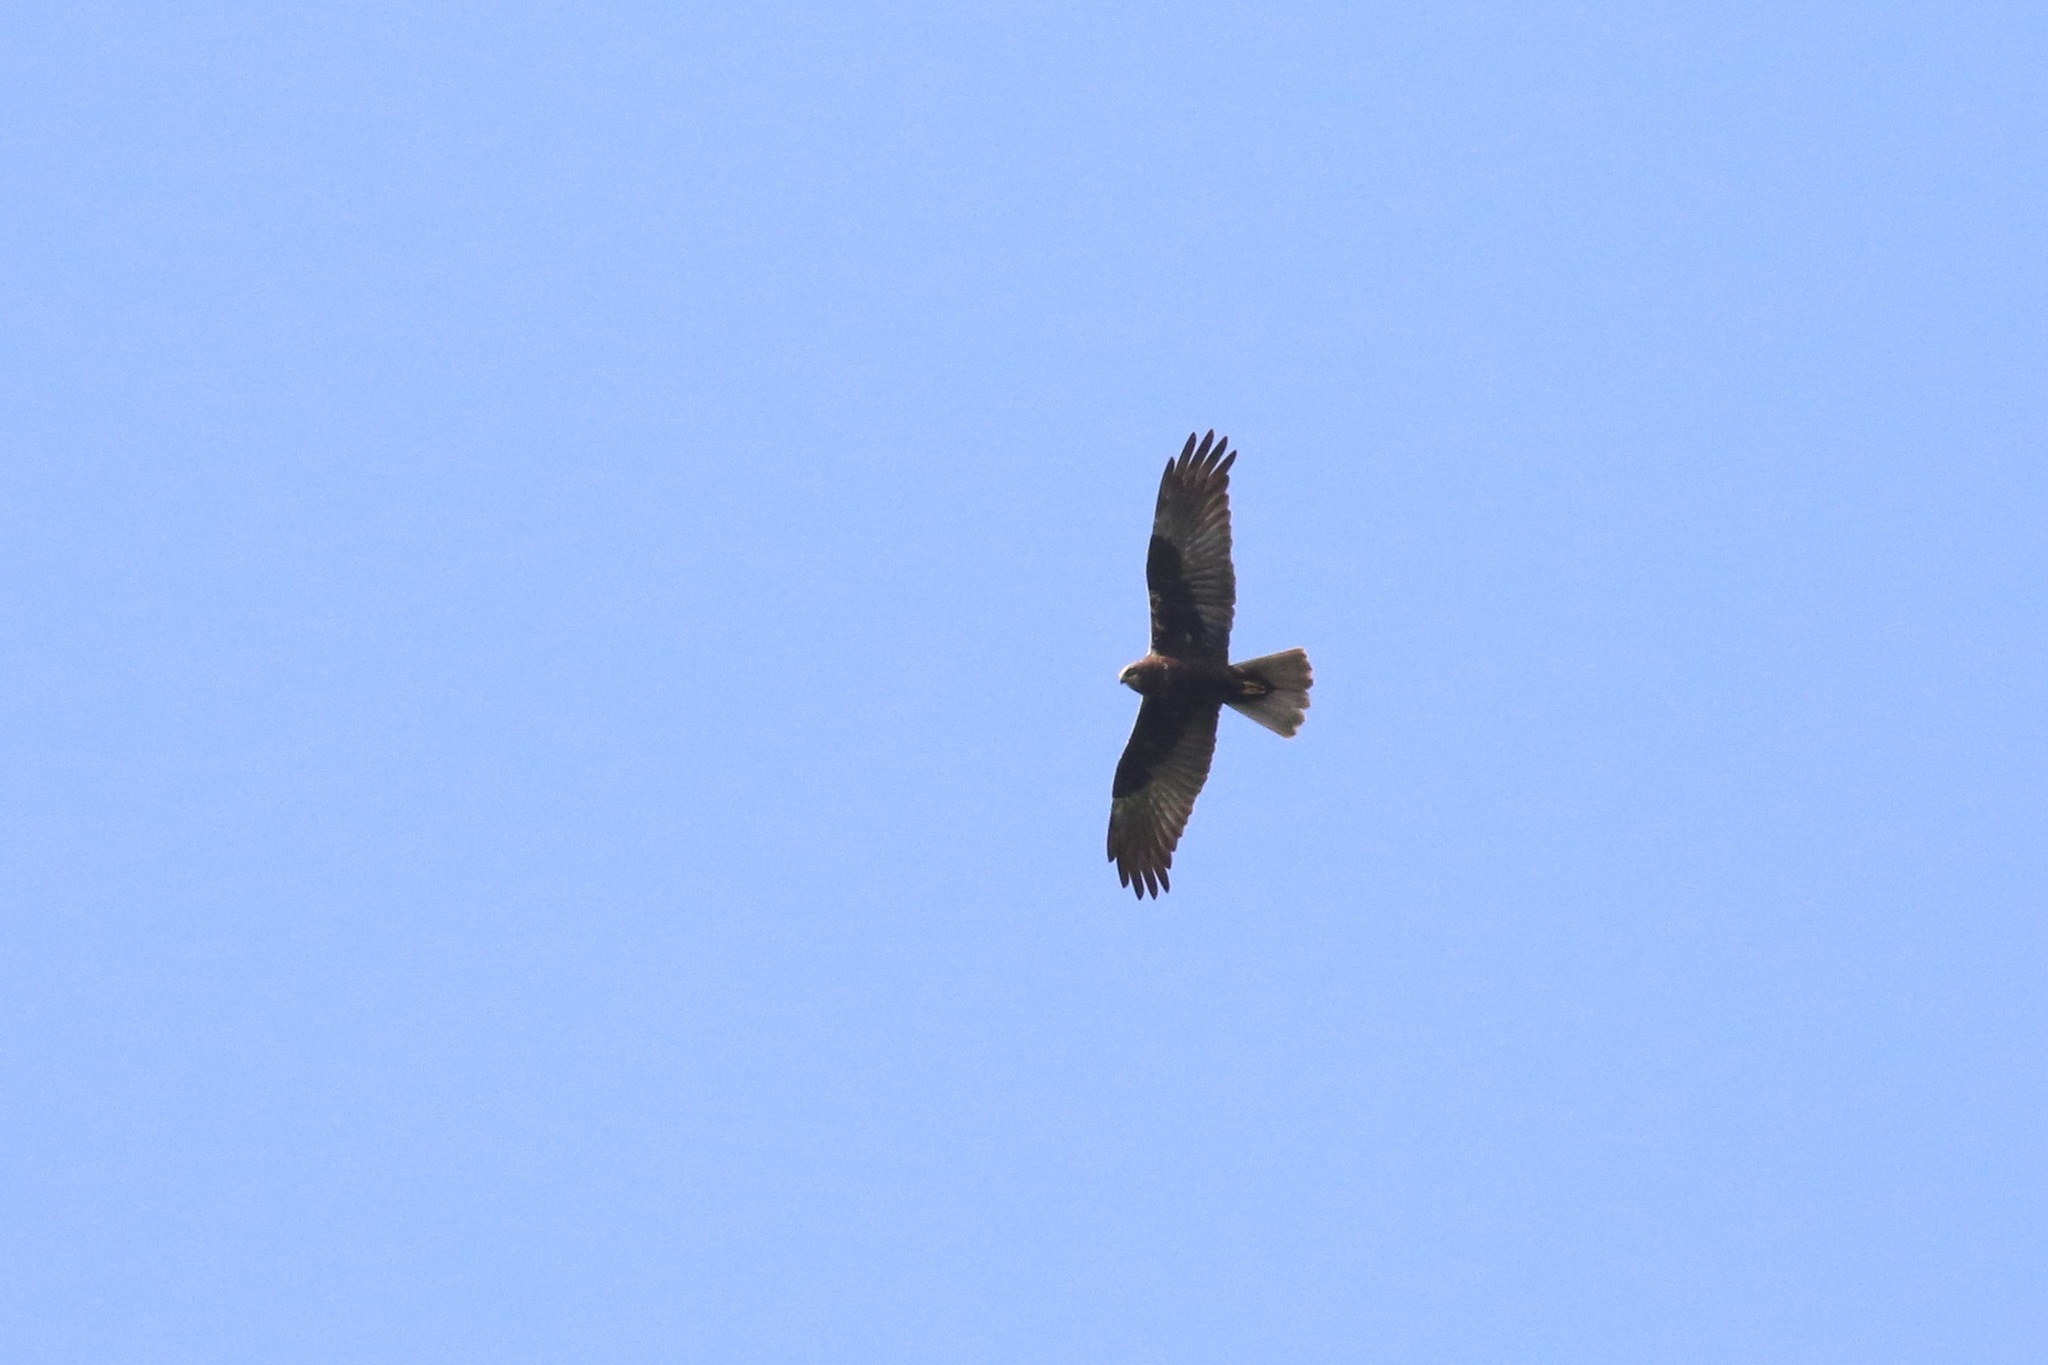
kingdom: Animalia
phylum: Chordata
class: Aves
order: Accipitriformes
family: Accipitridae
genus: Circus
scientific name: Circus aeruginosus
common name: Western marsh harrier
